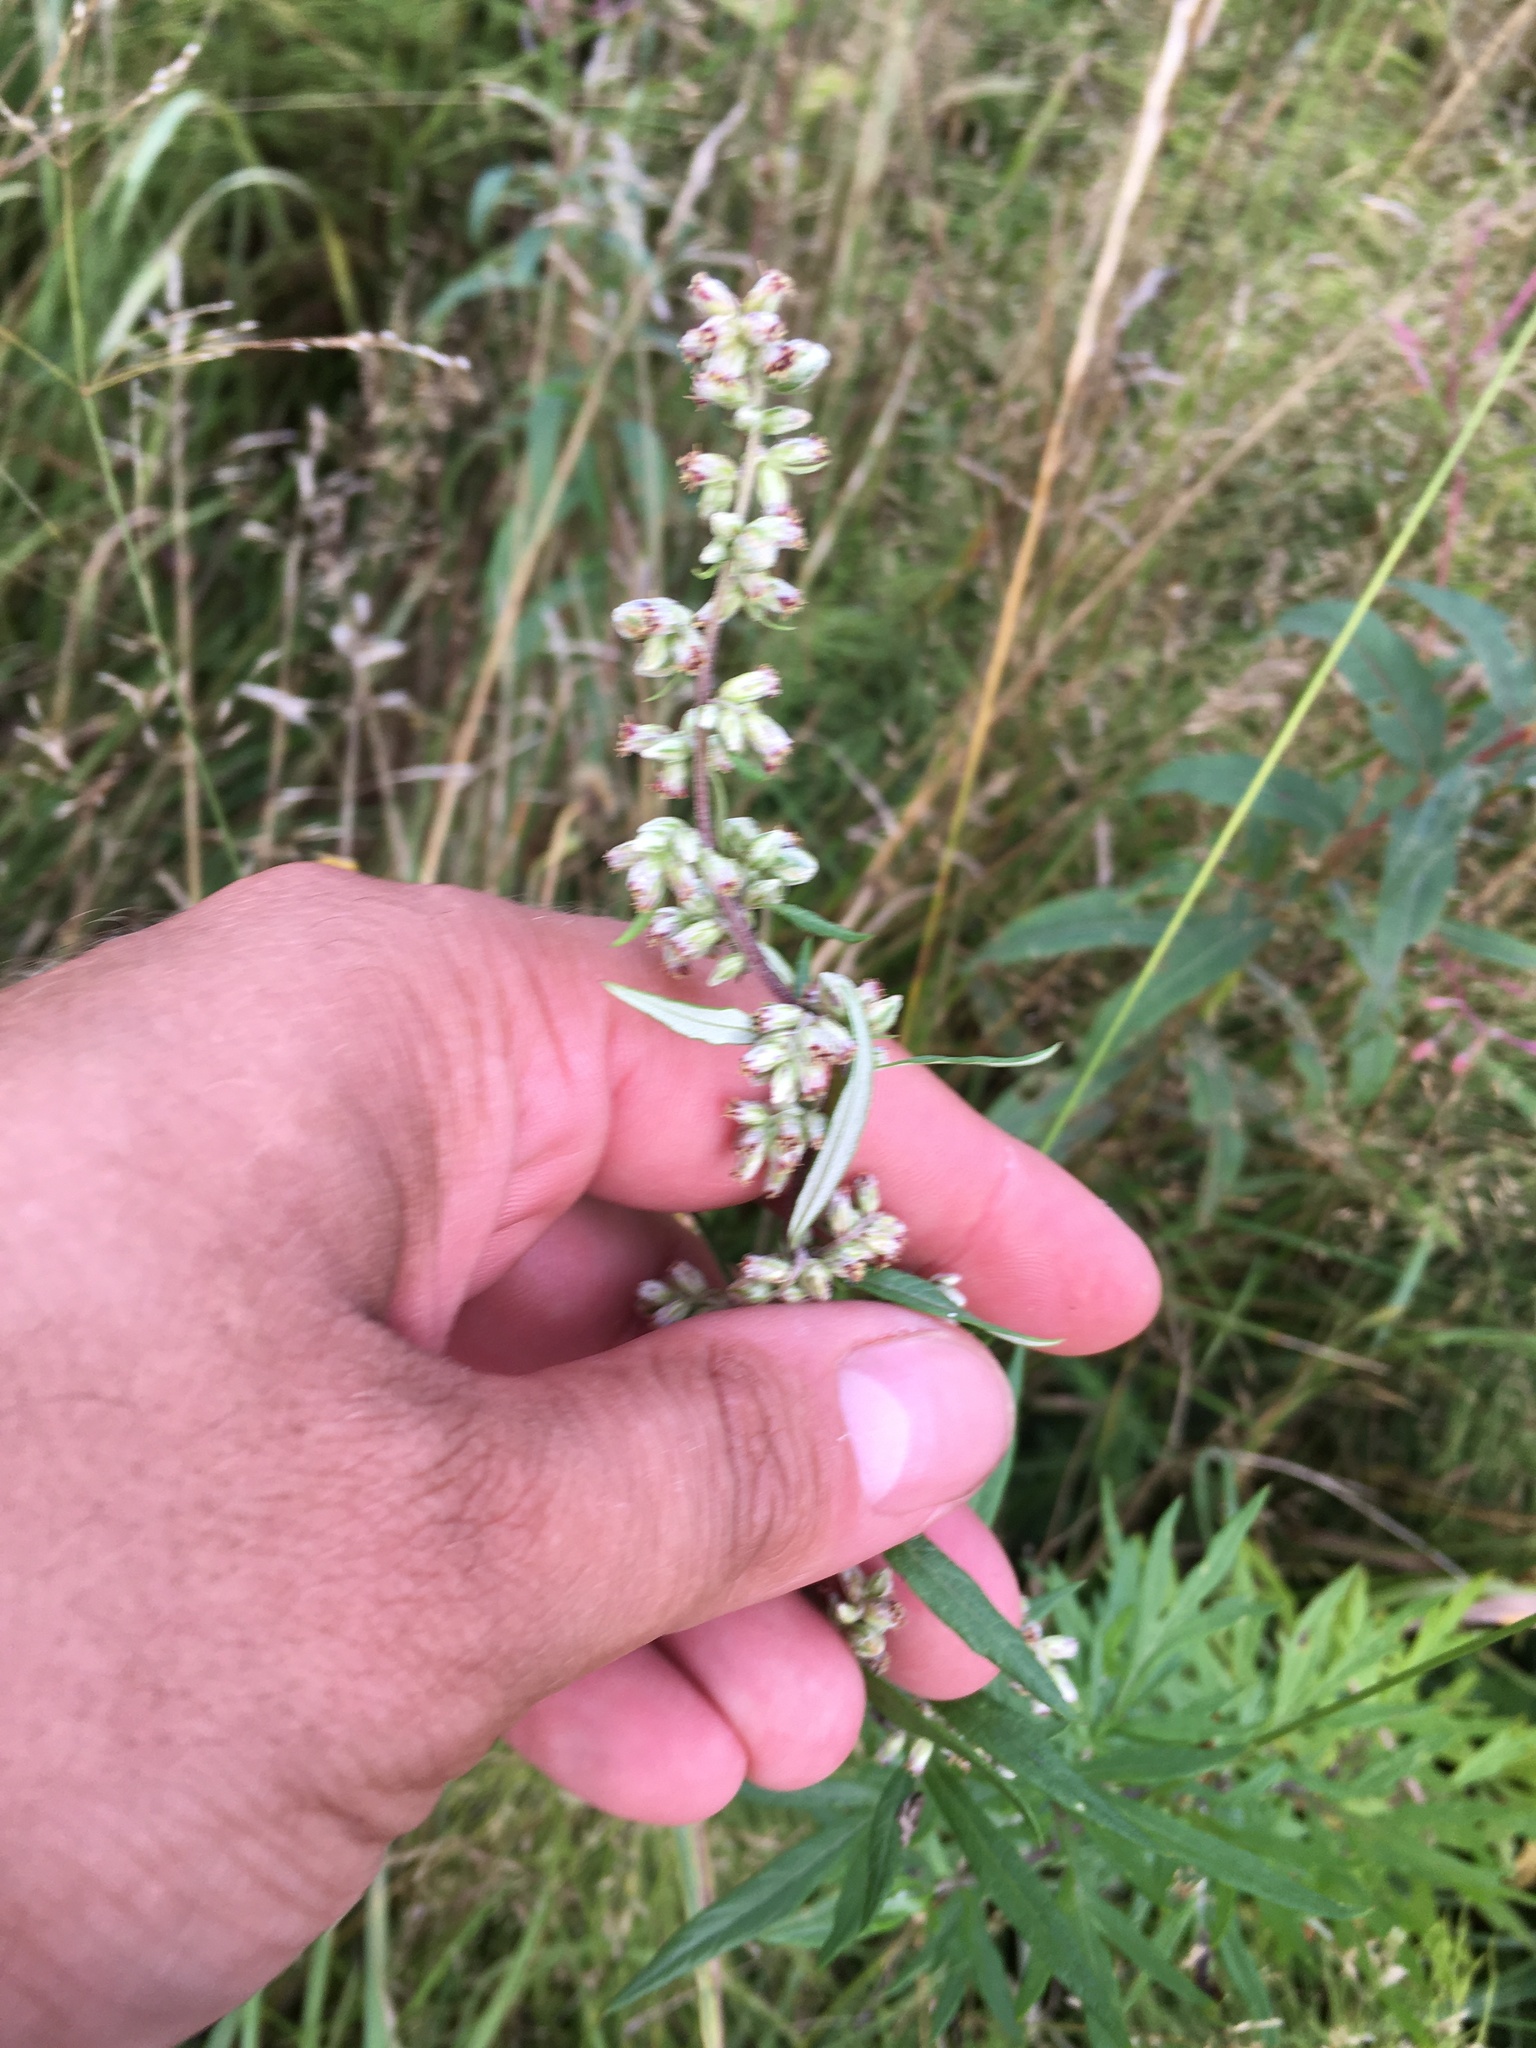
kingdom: Plantae
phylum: Tracheophyta
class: Magnoliopsida
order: Asterales
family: Asteraceae
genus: Artemisia
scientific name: Artemisia vulgaris
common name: Mugwort
